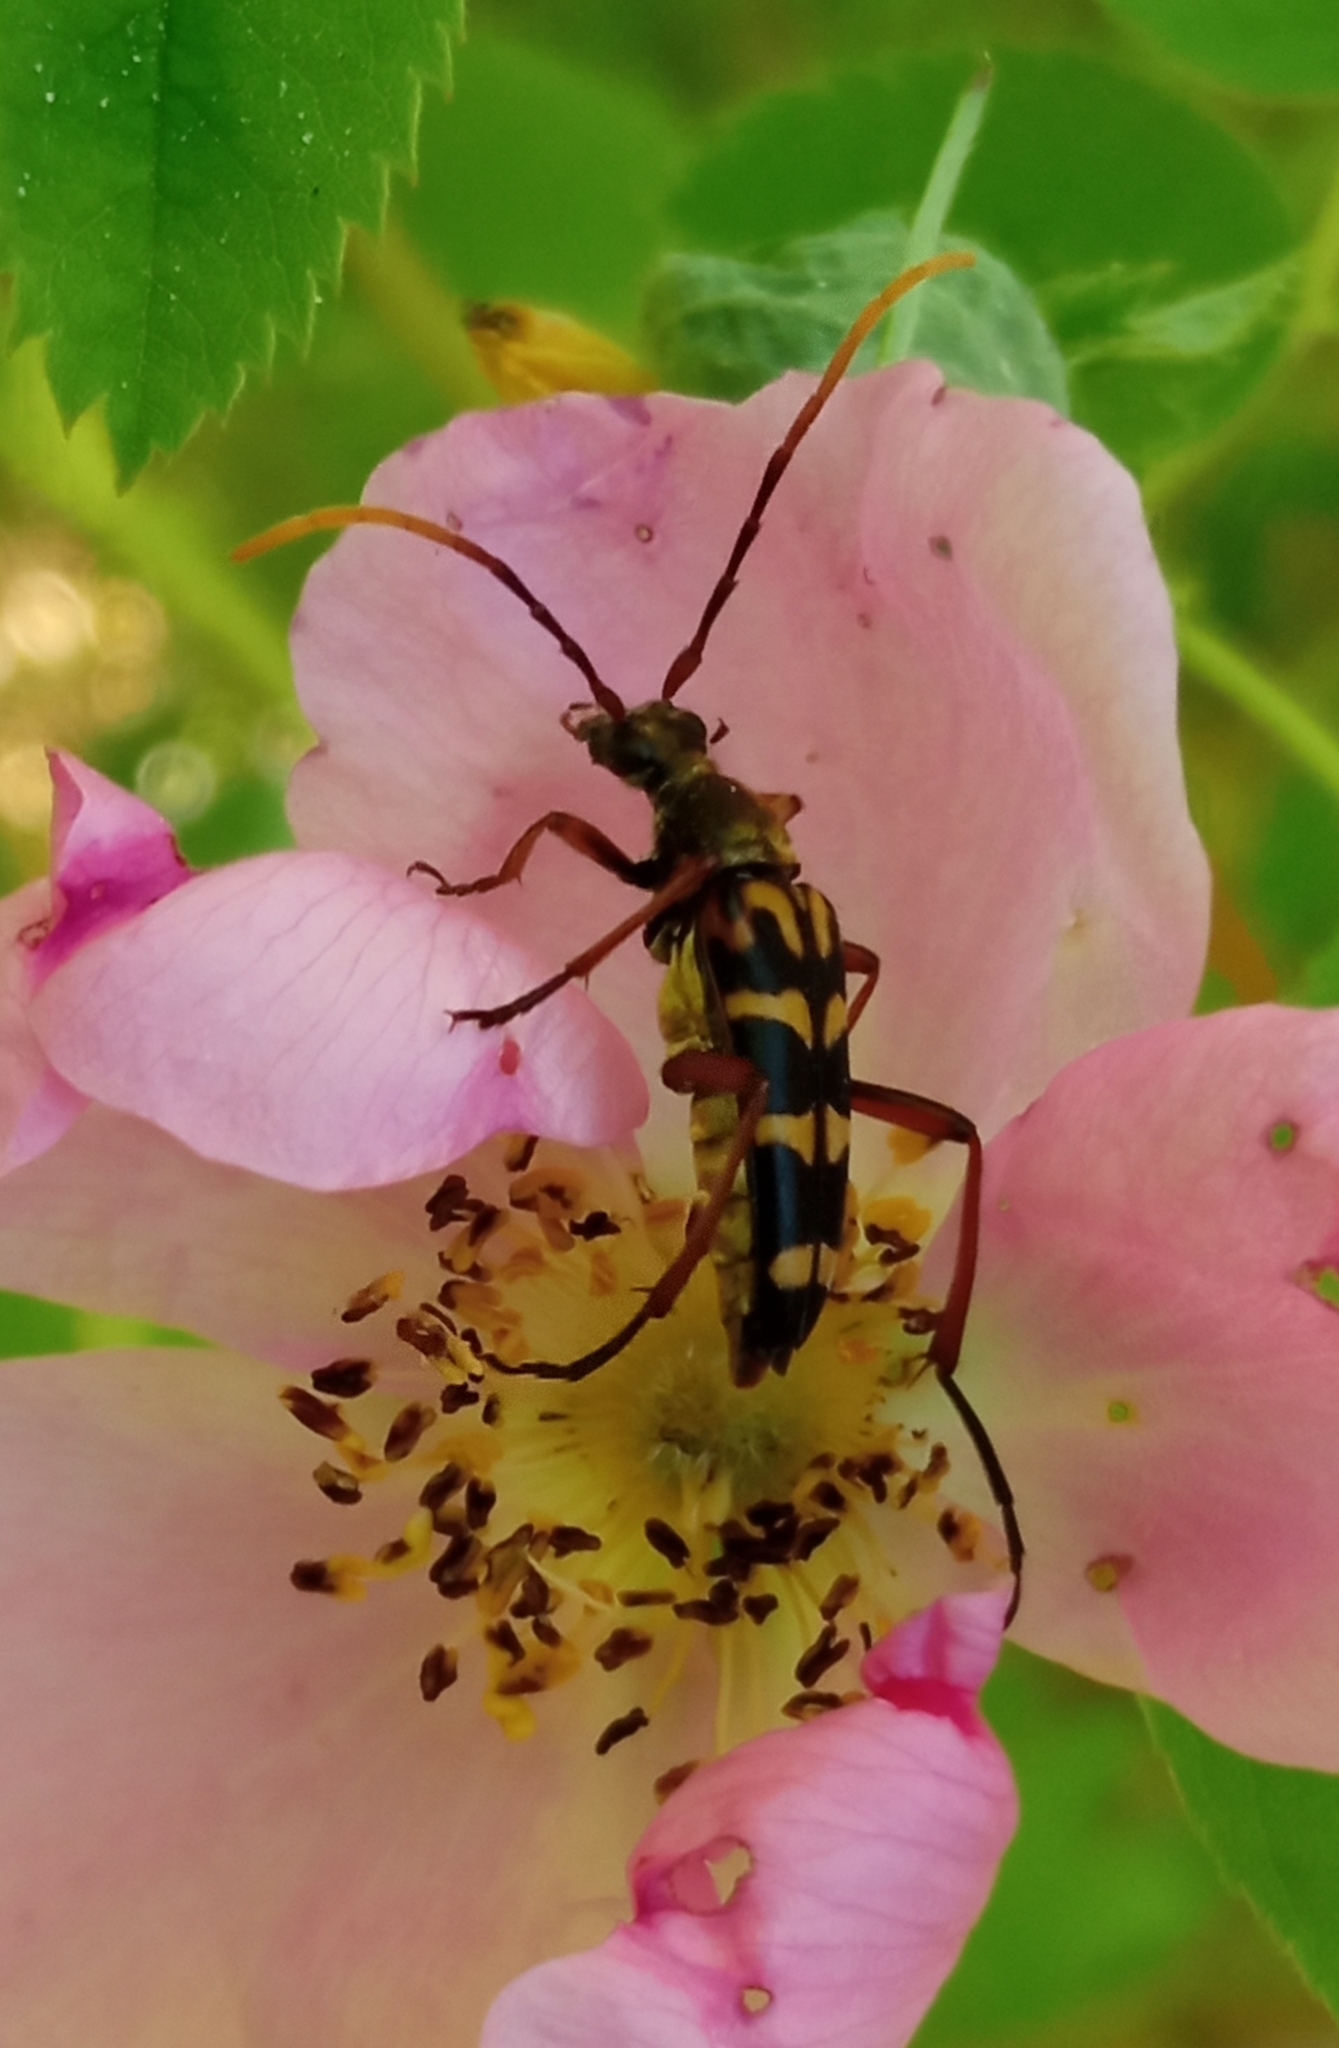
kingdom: Animalia
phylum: Arthropoda
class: Insecta
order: Coleoptera
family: Cerambycidae
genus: Leptura
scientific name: Leptura annularis
